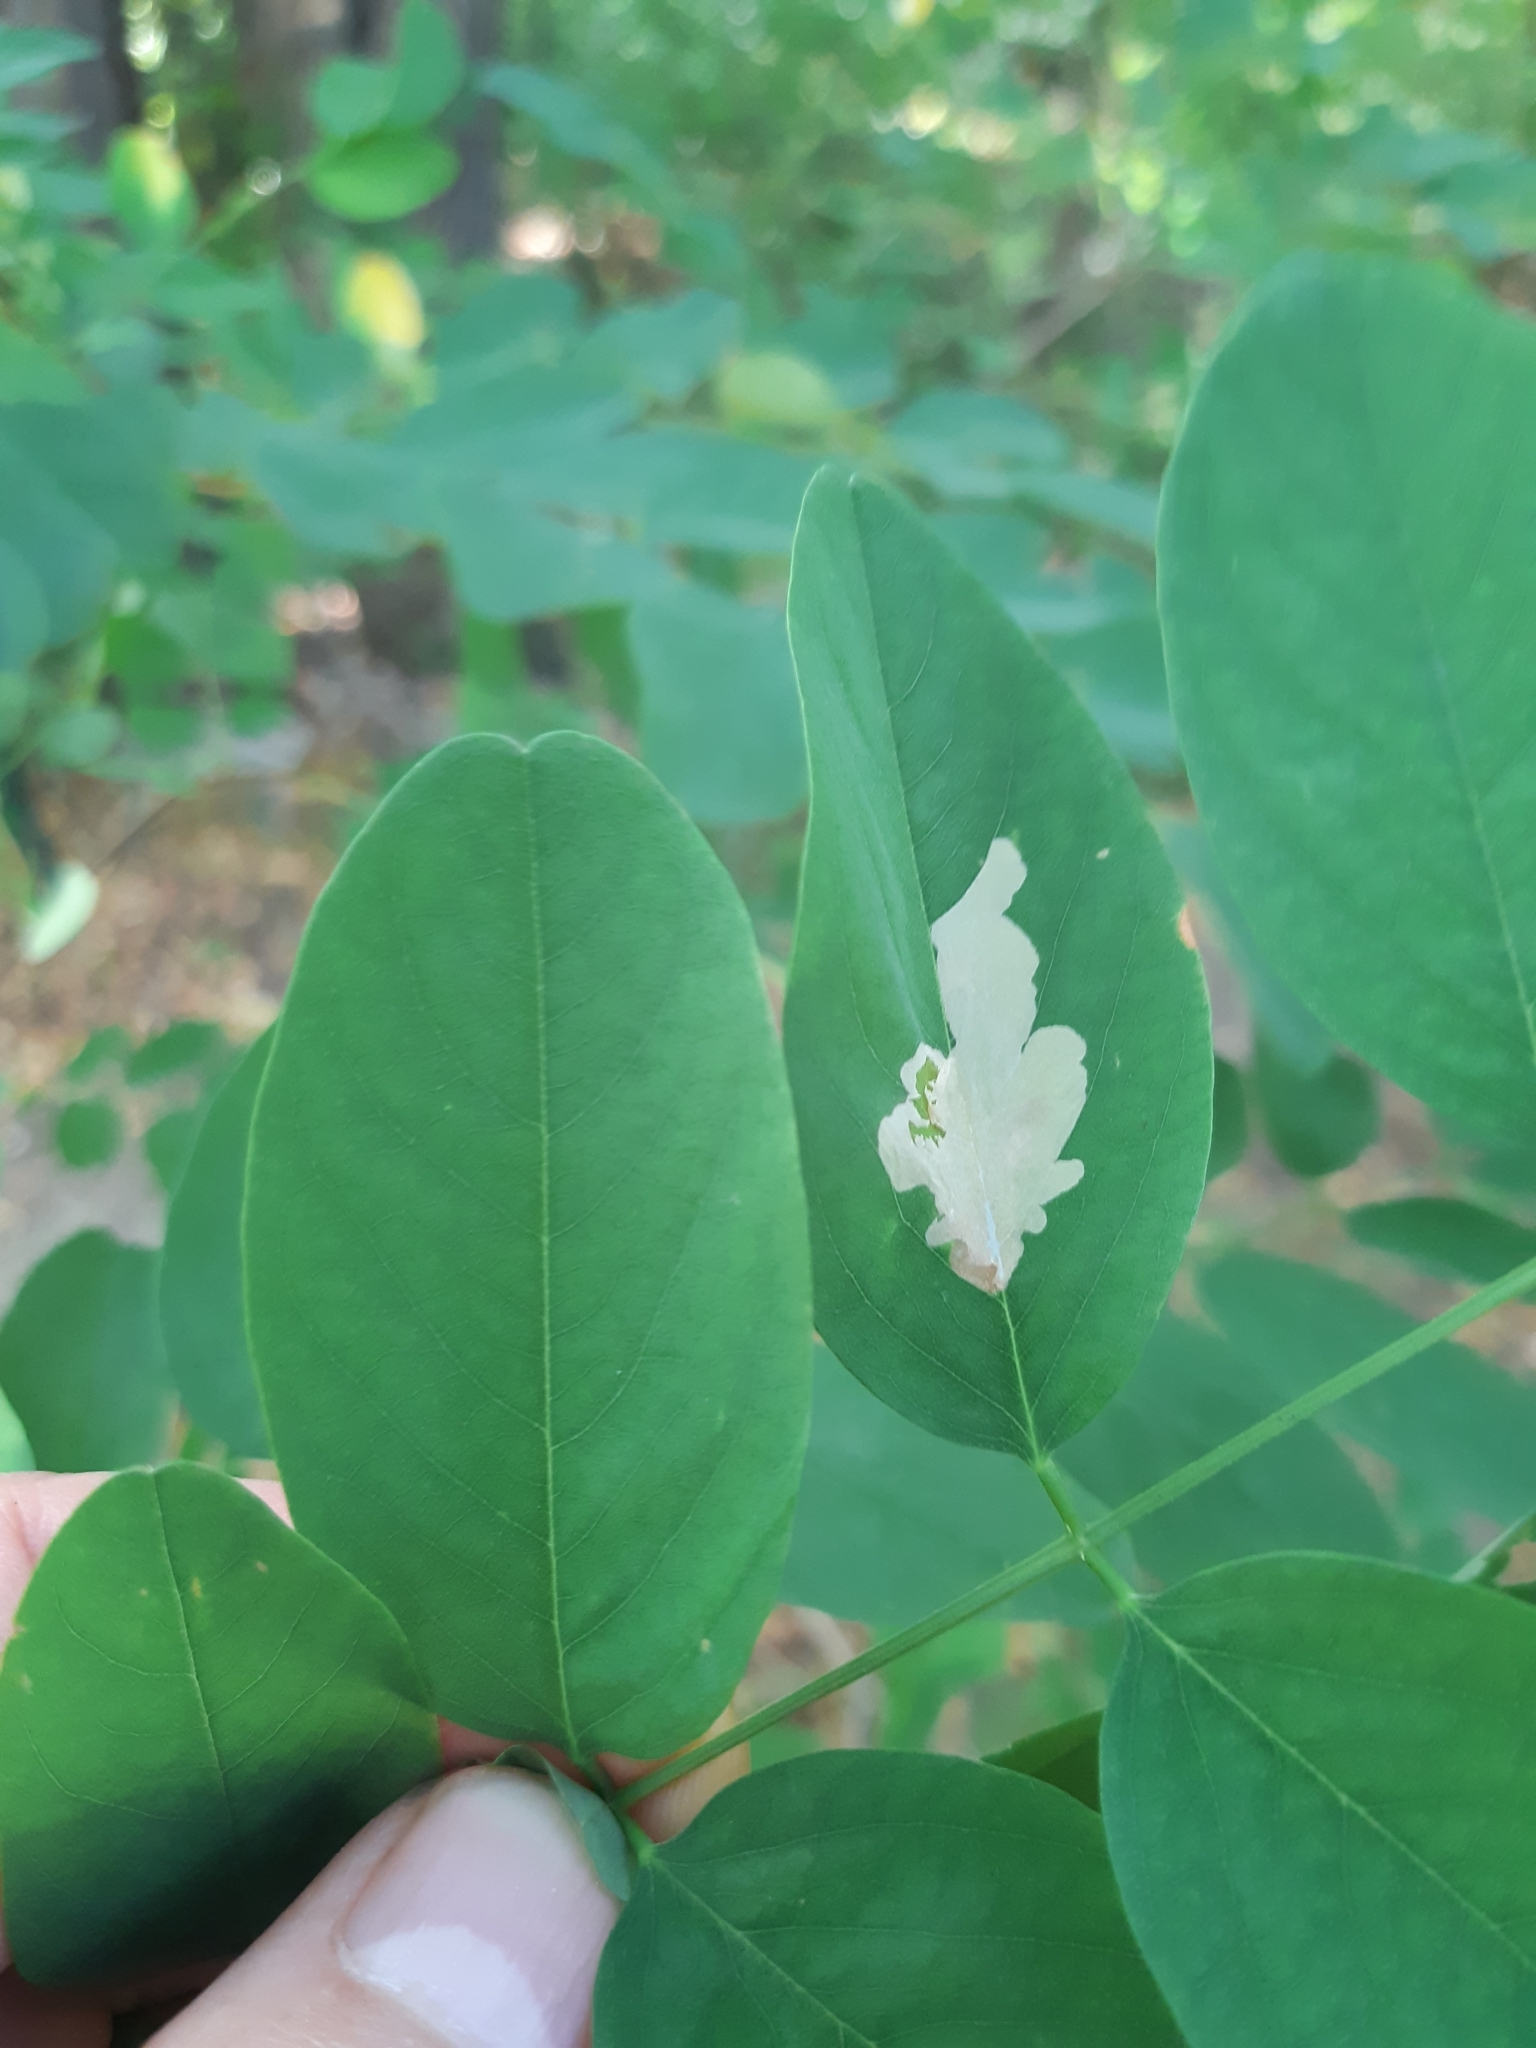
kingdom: Animalia
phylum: Arthropoda
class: Insecta
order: Lepidoptera
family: Gracillariidae
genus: Parectopa
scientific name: Parectopa robiniella
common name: Locust digitate leafminer
